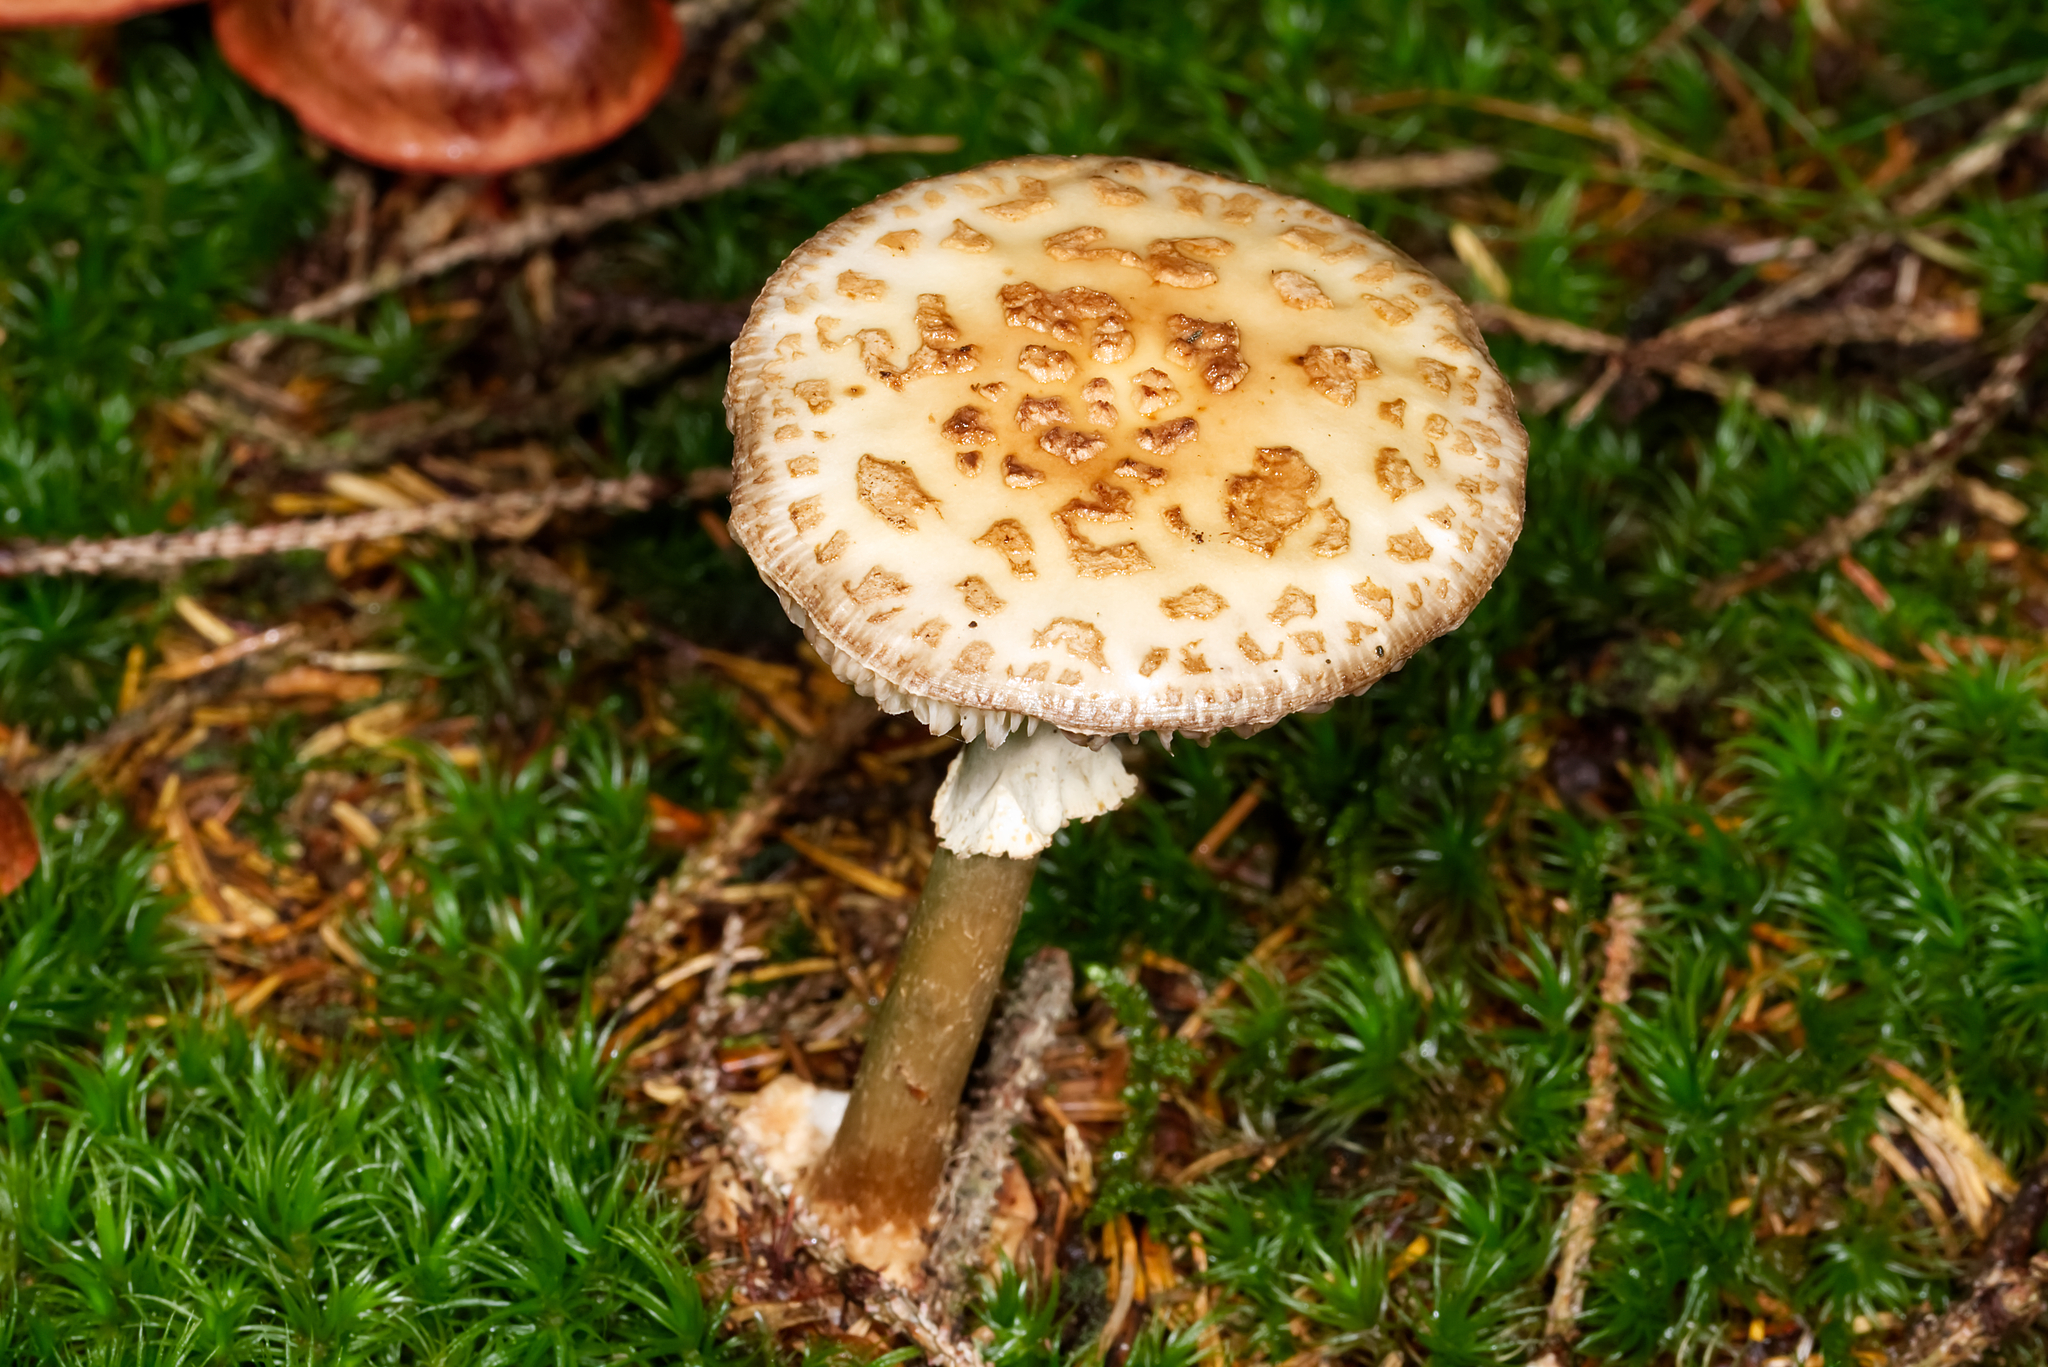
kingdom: Fungi
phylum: Basidiomycota
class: Agaricomycetes
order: Agaricales
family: Amanitaceae
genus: Amanita
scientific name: Amanita citrina
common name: False death-cap
